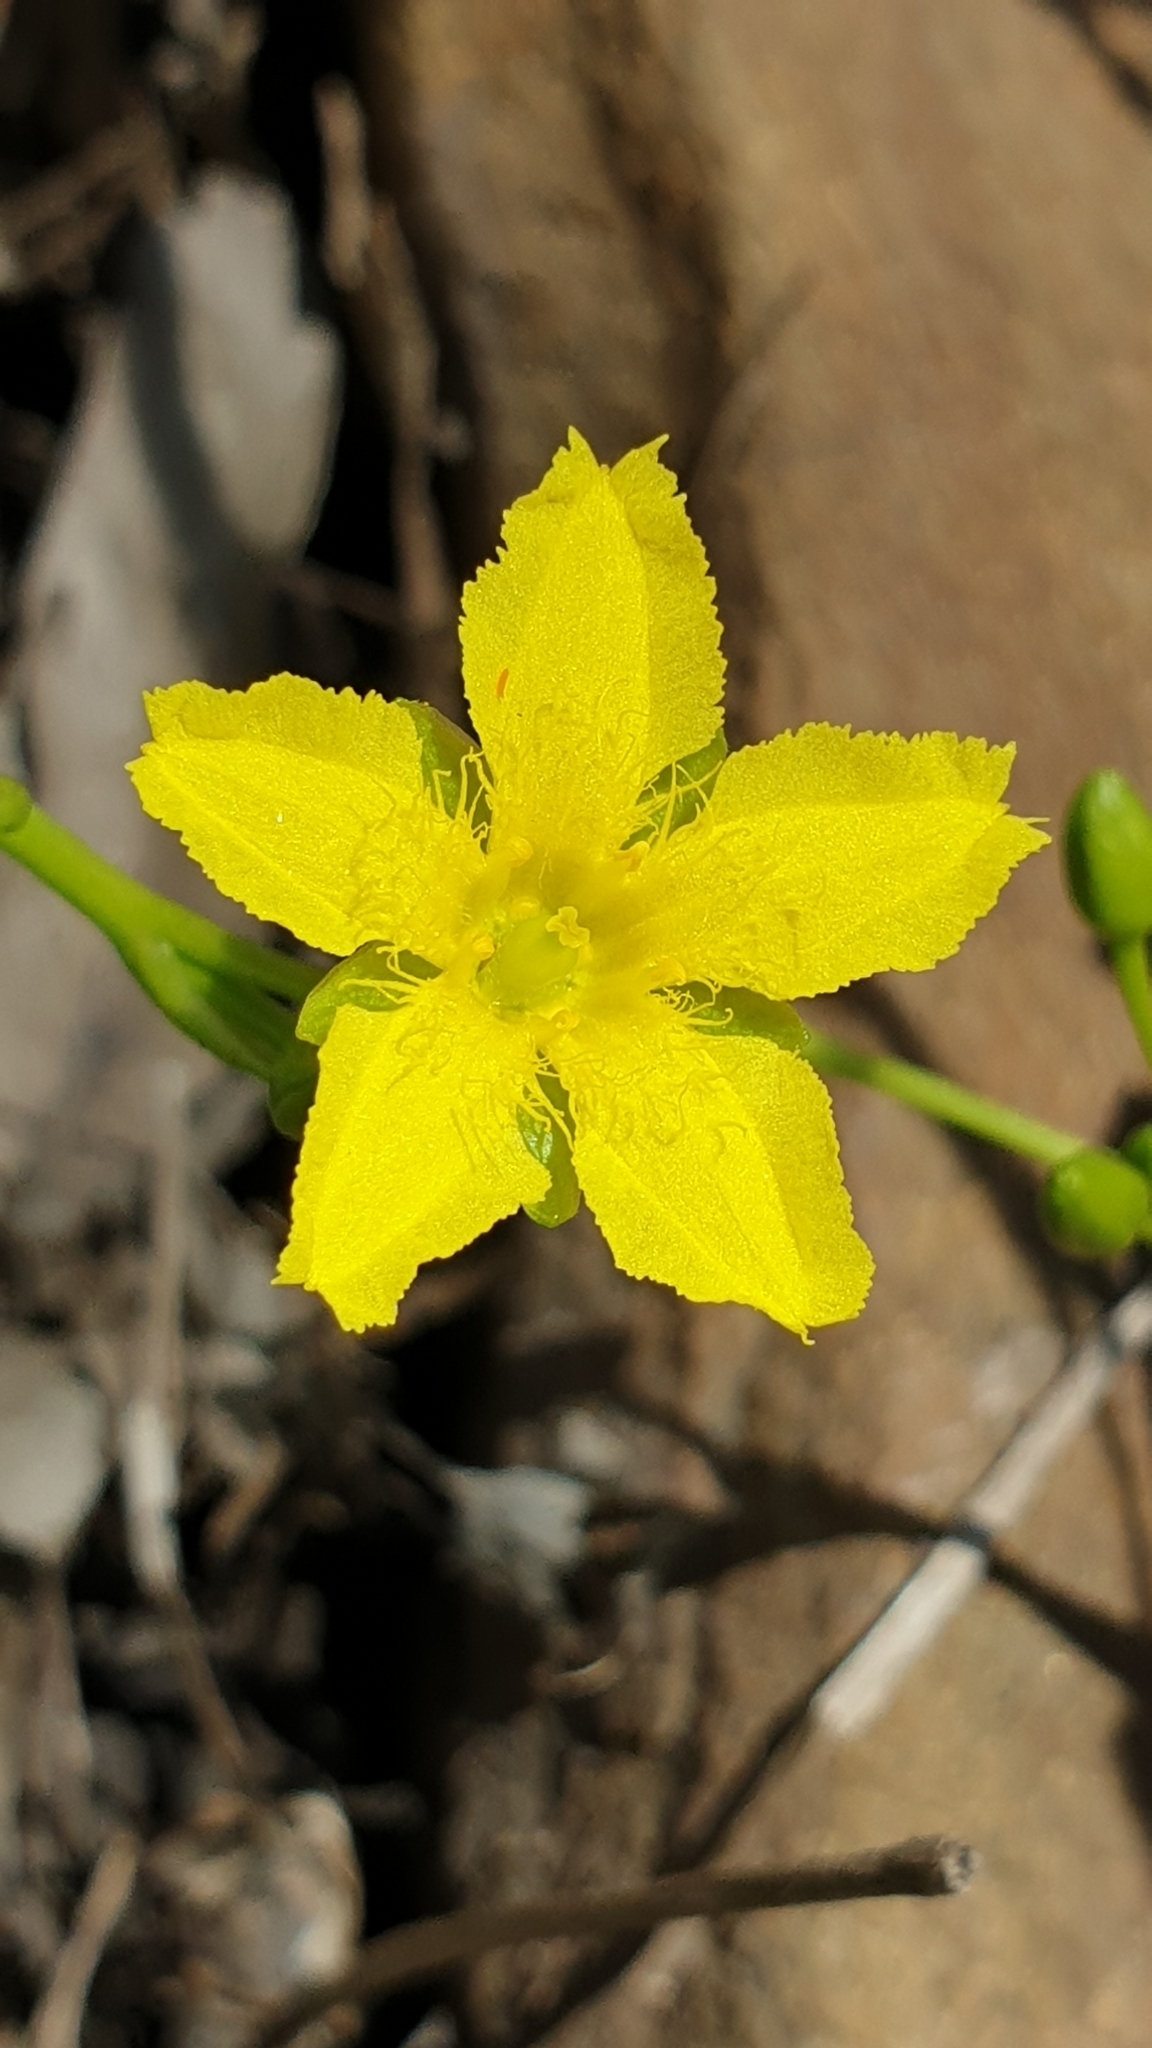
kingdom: Plantae
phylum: Tracheophyta
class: Magnoliopsida
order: Asterales
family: Menyanthaceae
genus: Ornduffia
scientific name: Ornduffia umbricola
